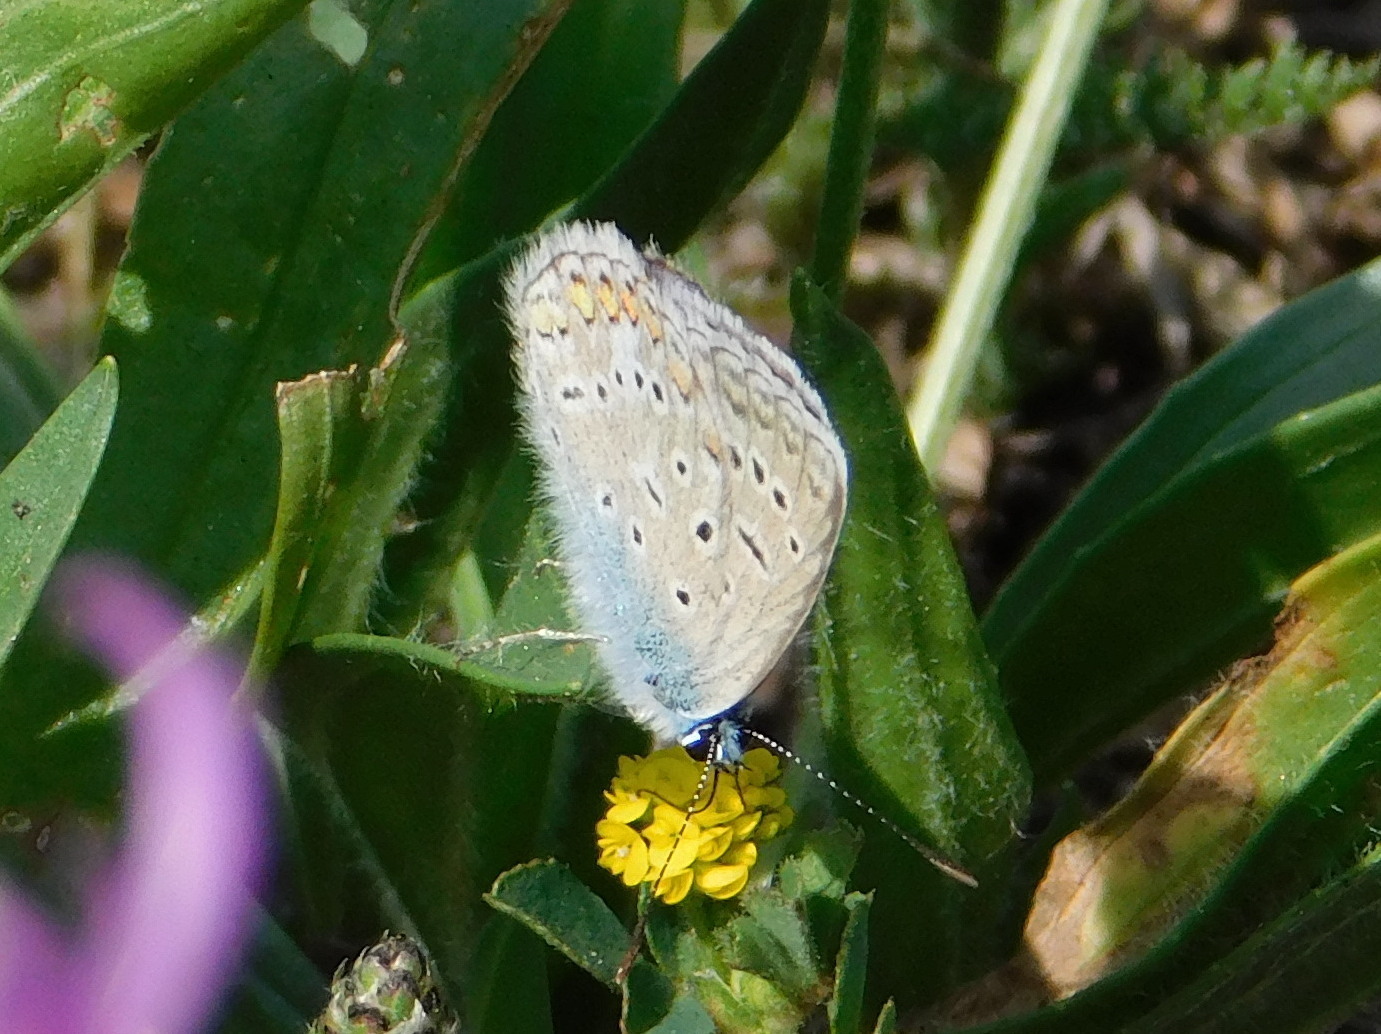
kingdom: Animalia
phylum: Arthropoda
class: Insecta
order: Lepidoptera
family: Lycaenidae
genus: Polyommatus
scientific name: Polyommatus icarus
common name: Common blue
